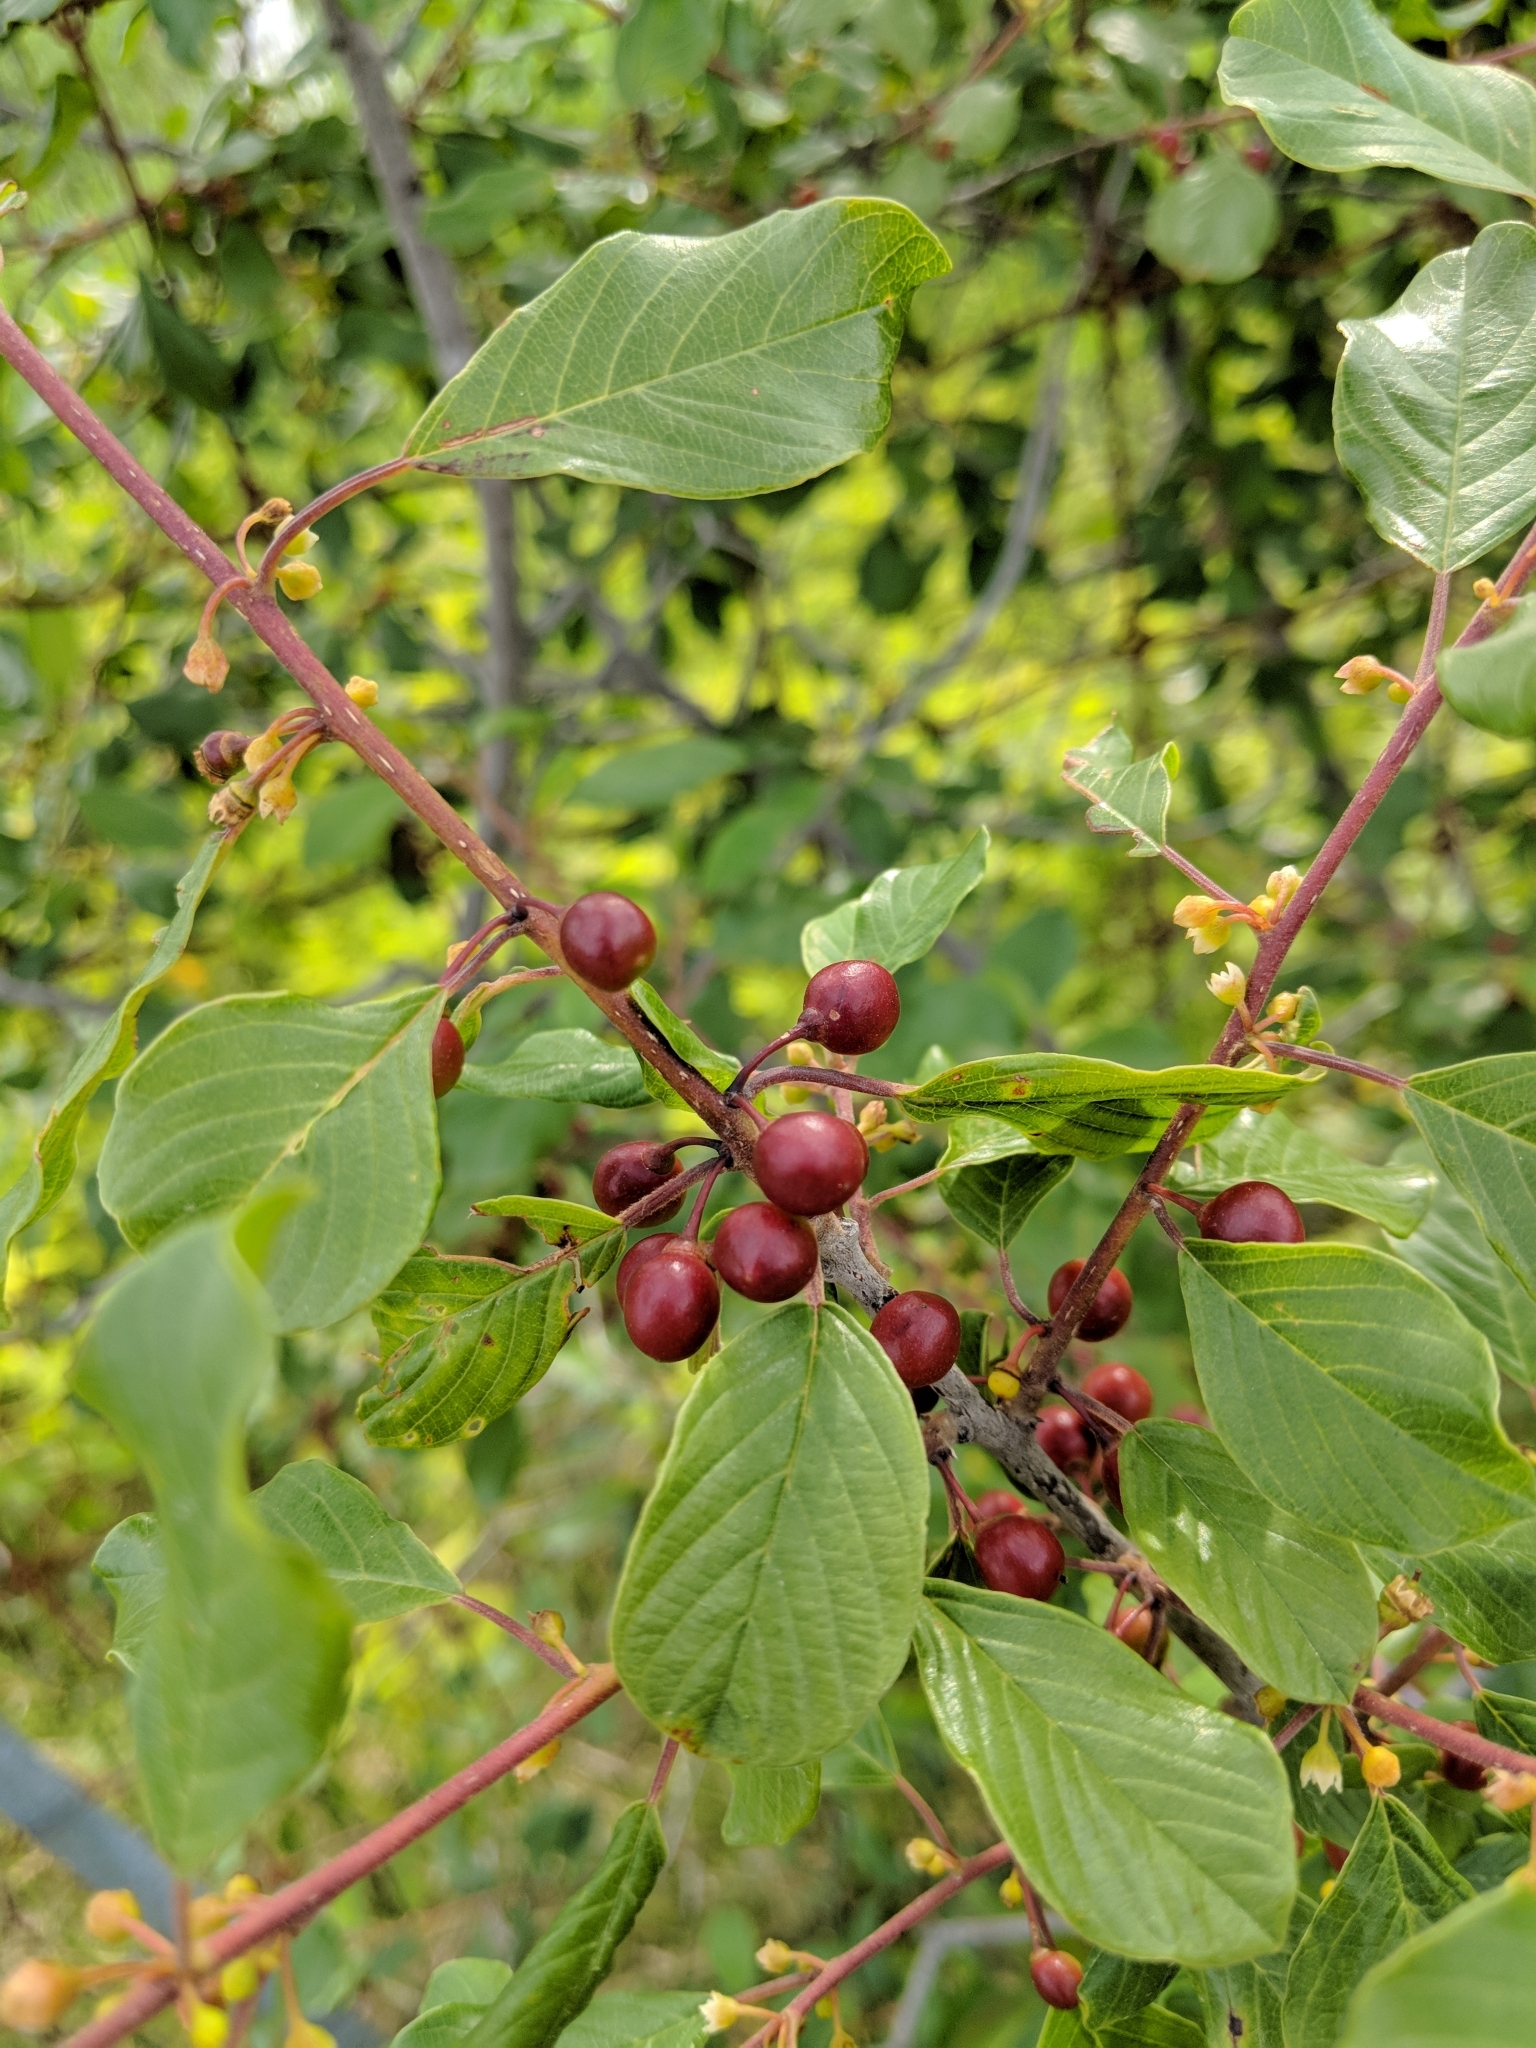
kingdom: Plantae
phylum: Tracheophyta
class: Magnoliopsida
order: Rosales
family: Rhamnaceae
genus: Frangula
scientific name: Frangula alnus
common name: Alder buckthorn
